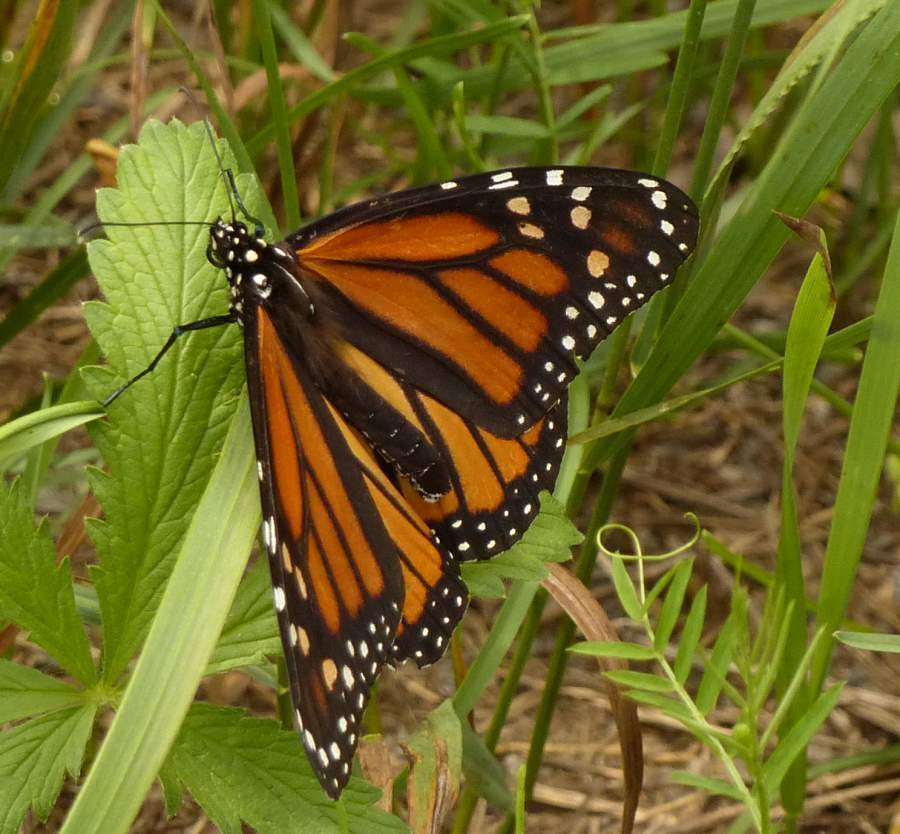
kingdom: Animalia
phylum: Arthropoda
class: Insecta
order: Lepidoptera
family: Nymphalidae
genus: Danaus
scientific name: Danaus plexippus
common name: Monarch
